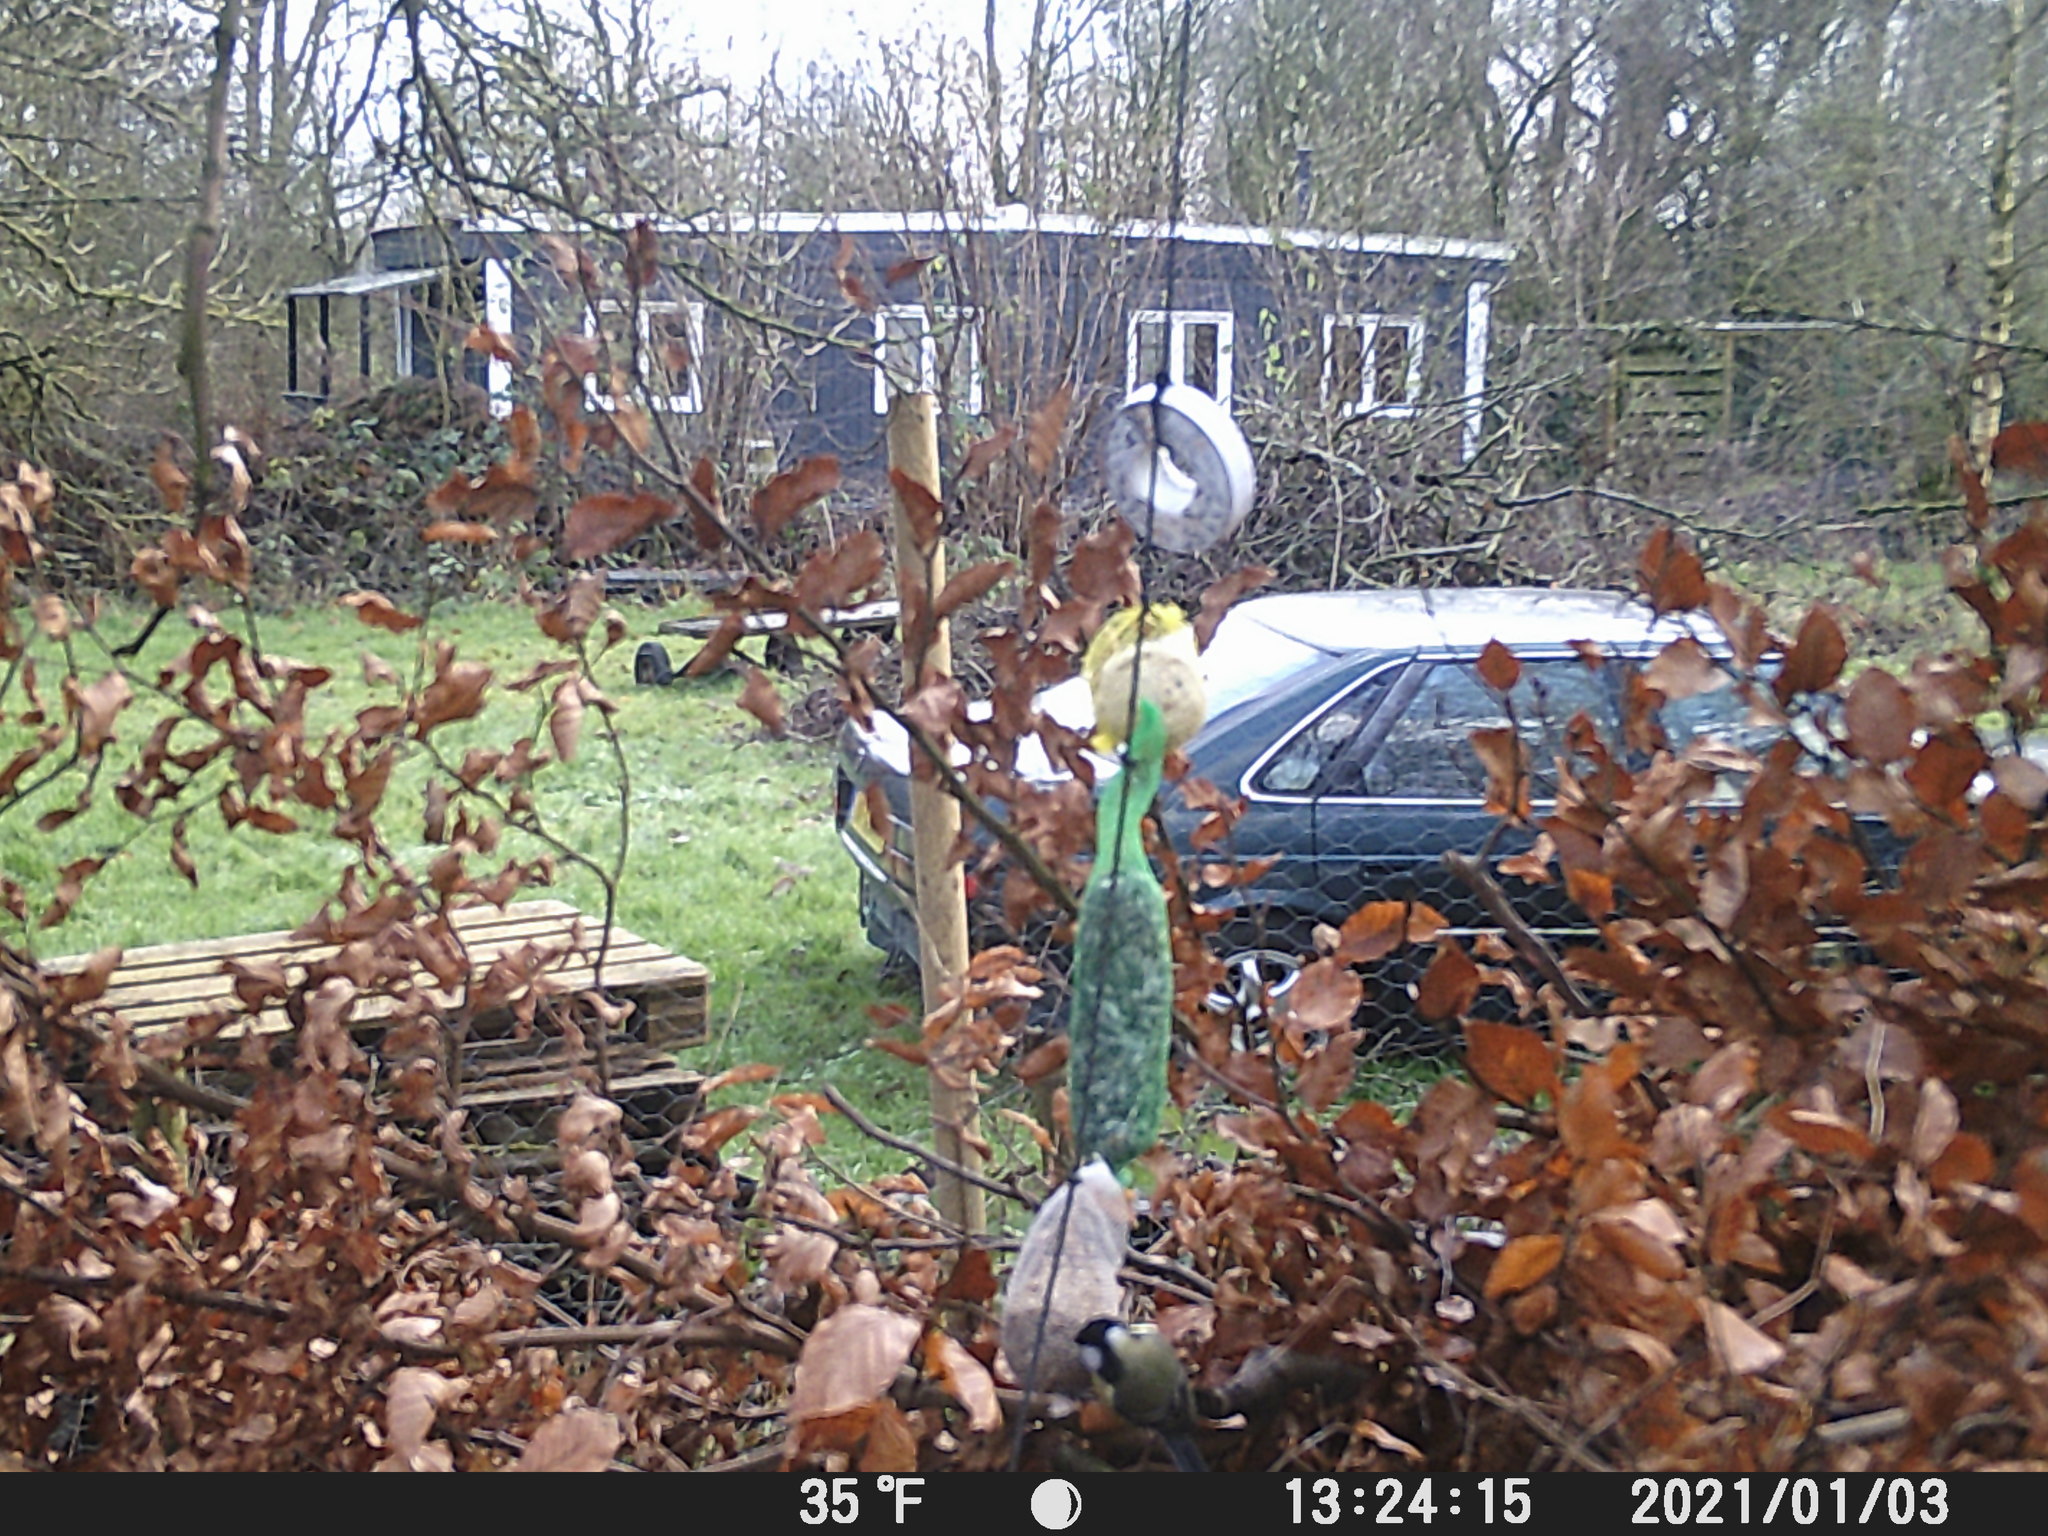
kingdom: Animalia
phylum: Chordata
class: Aves
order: Passeriformes
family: Paridae
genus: Parus
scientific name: Parus major
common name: Great tit
